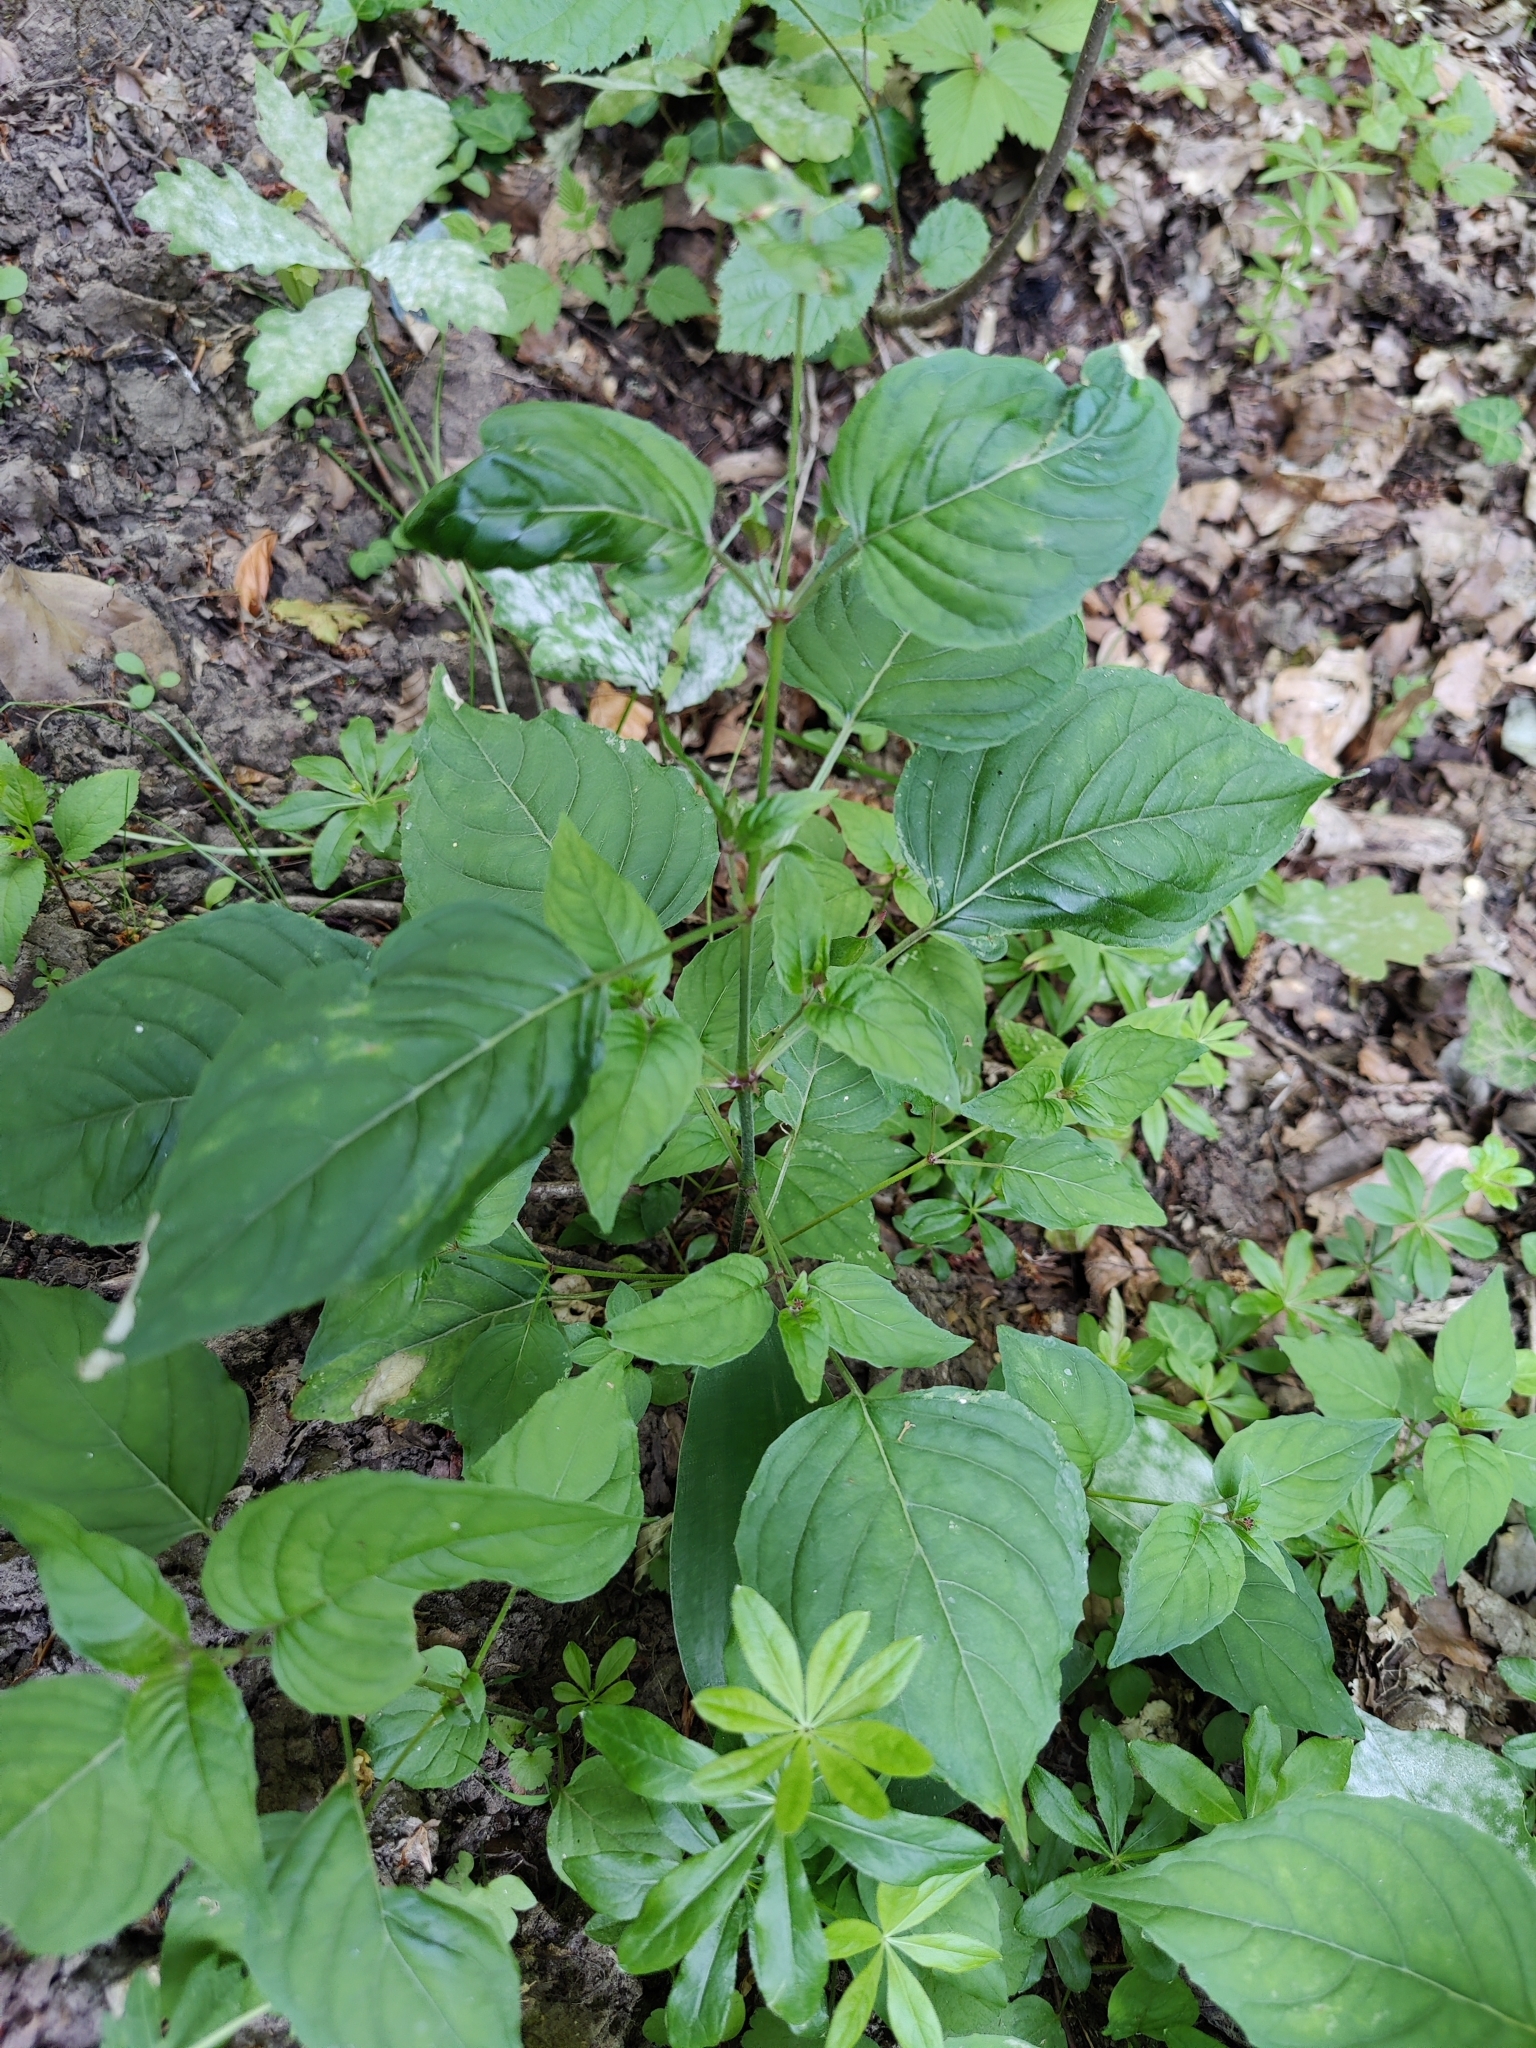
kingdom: Plantae
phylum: Tracheophyta
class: Magnoliopsida
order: Myrtales
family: Onagraceae
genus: Circaea
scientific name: Circaea lutetiana
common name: Enchanter's-nightshade
